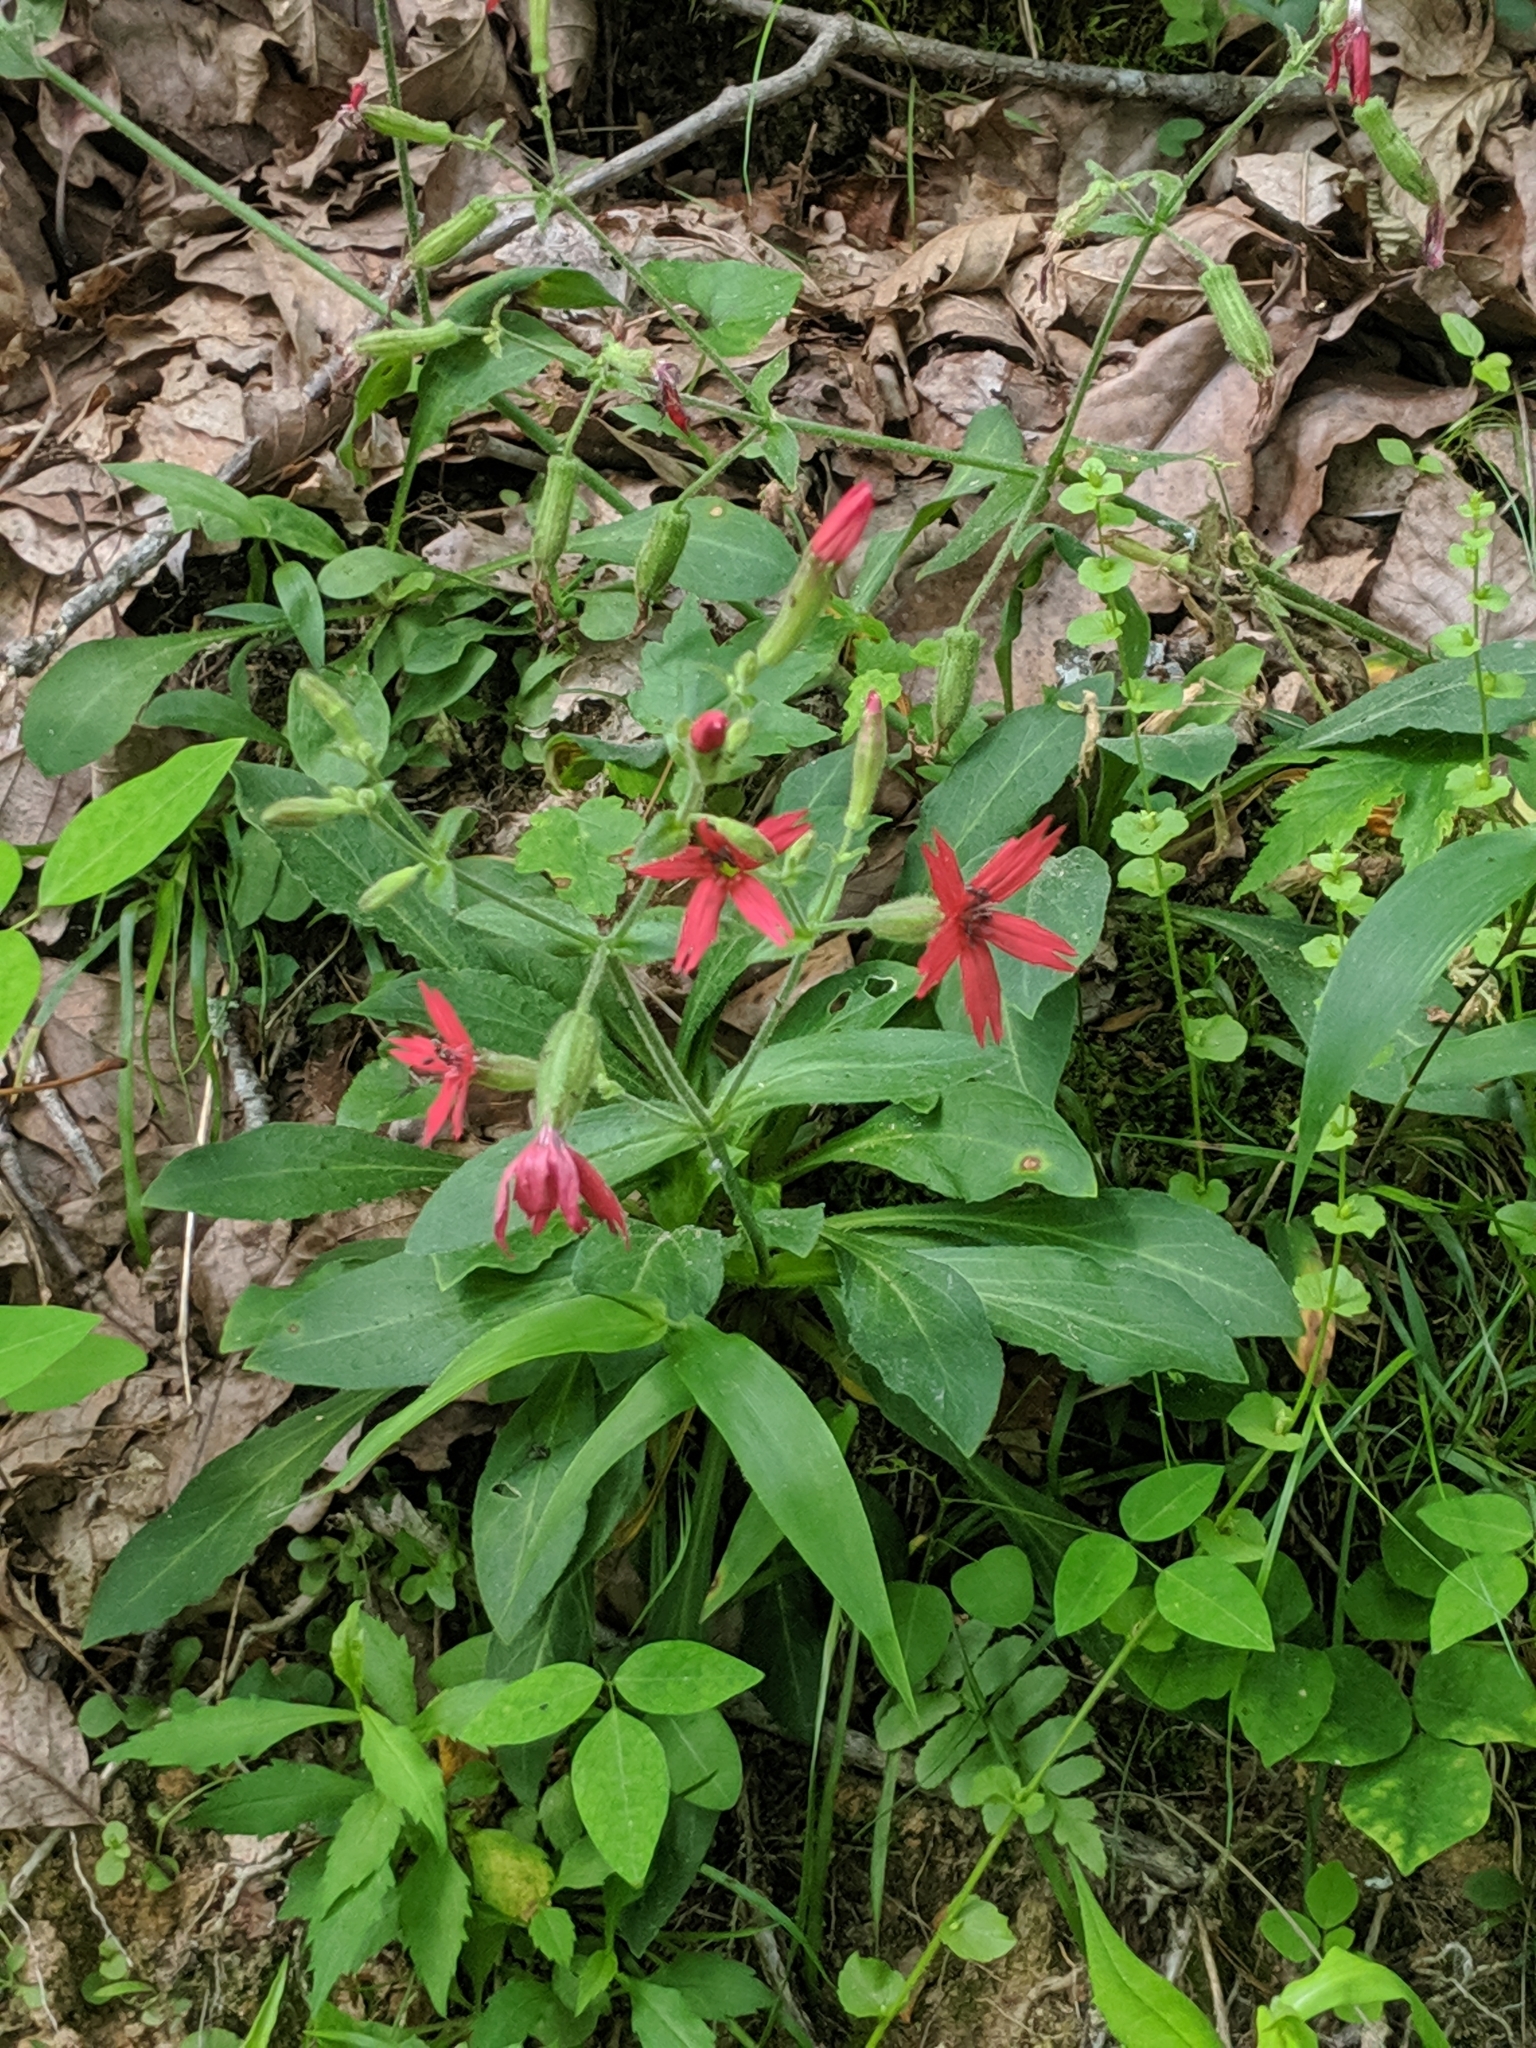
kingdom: Plantae
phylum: Tracheophyta
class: Magnoliopsida
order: Caryophyllales
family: Caryophyllaceae
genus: Silene
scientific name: Silene virginica
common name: Fire-pink
